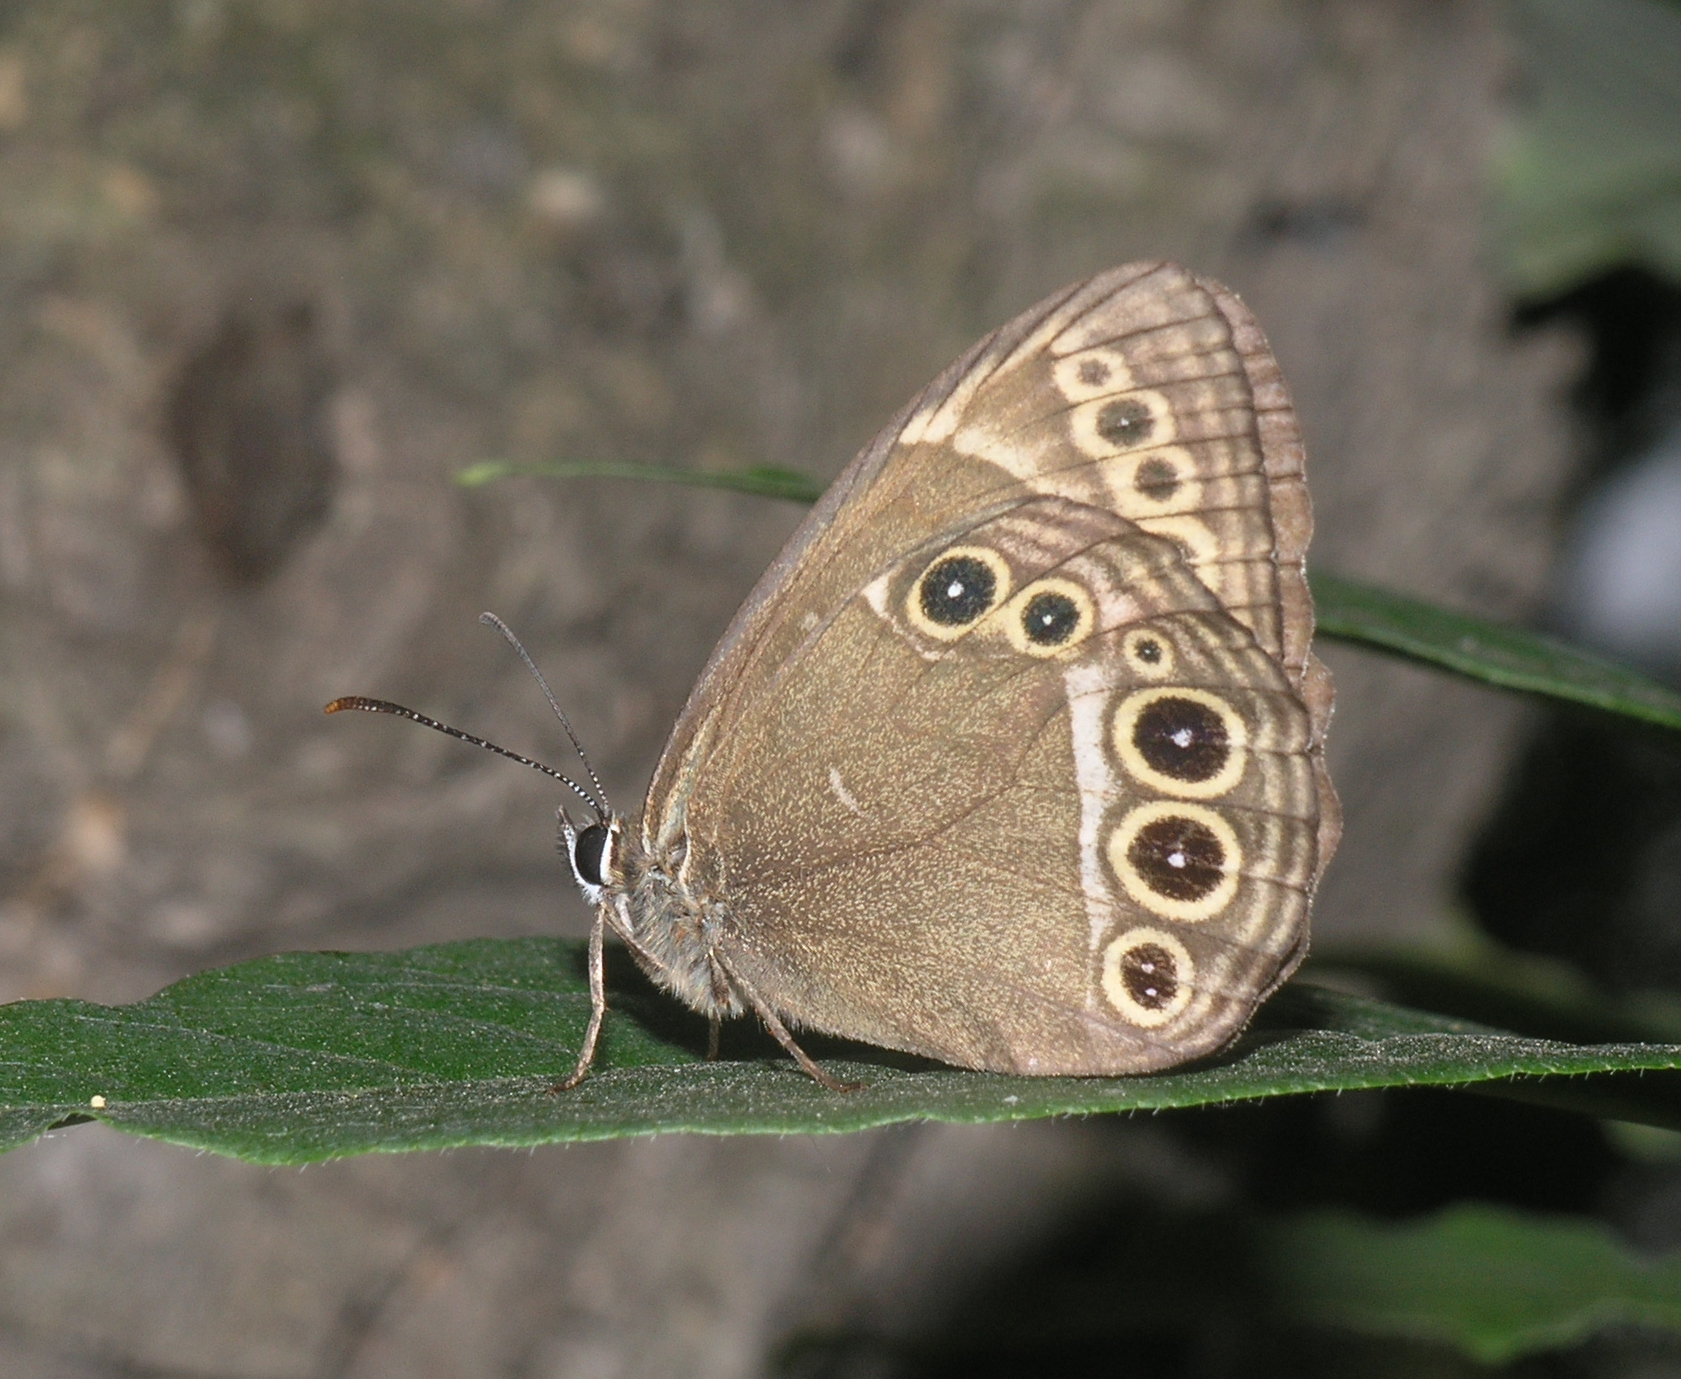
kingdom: Animalia
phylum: Arthropoda
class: Insecta
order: Lepidoptera
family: Nymphalidae
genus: Pararge
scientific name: Pararge Lopinga achine
